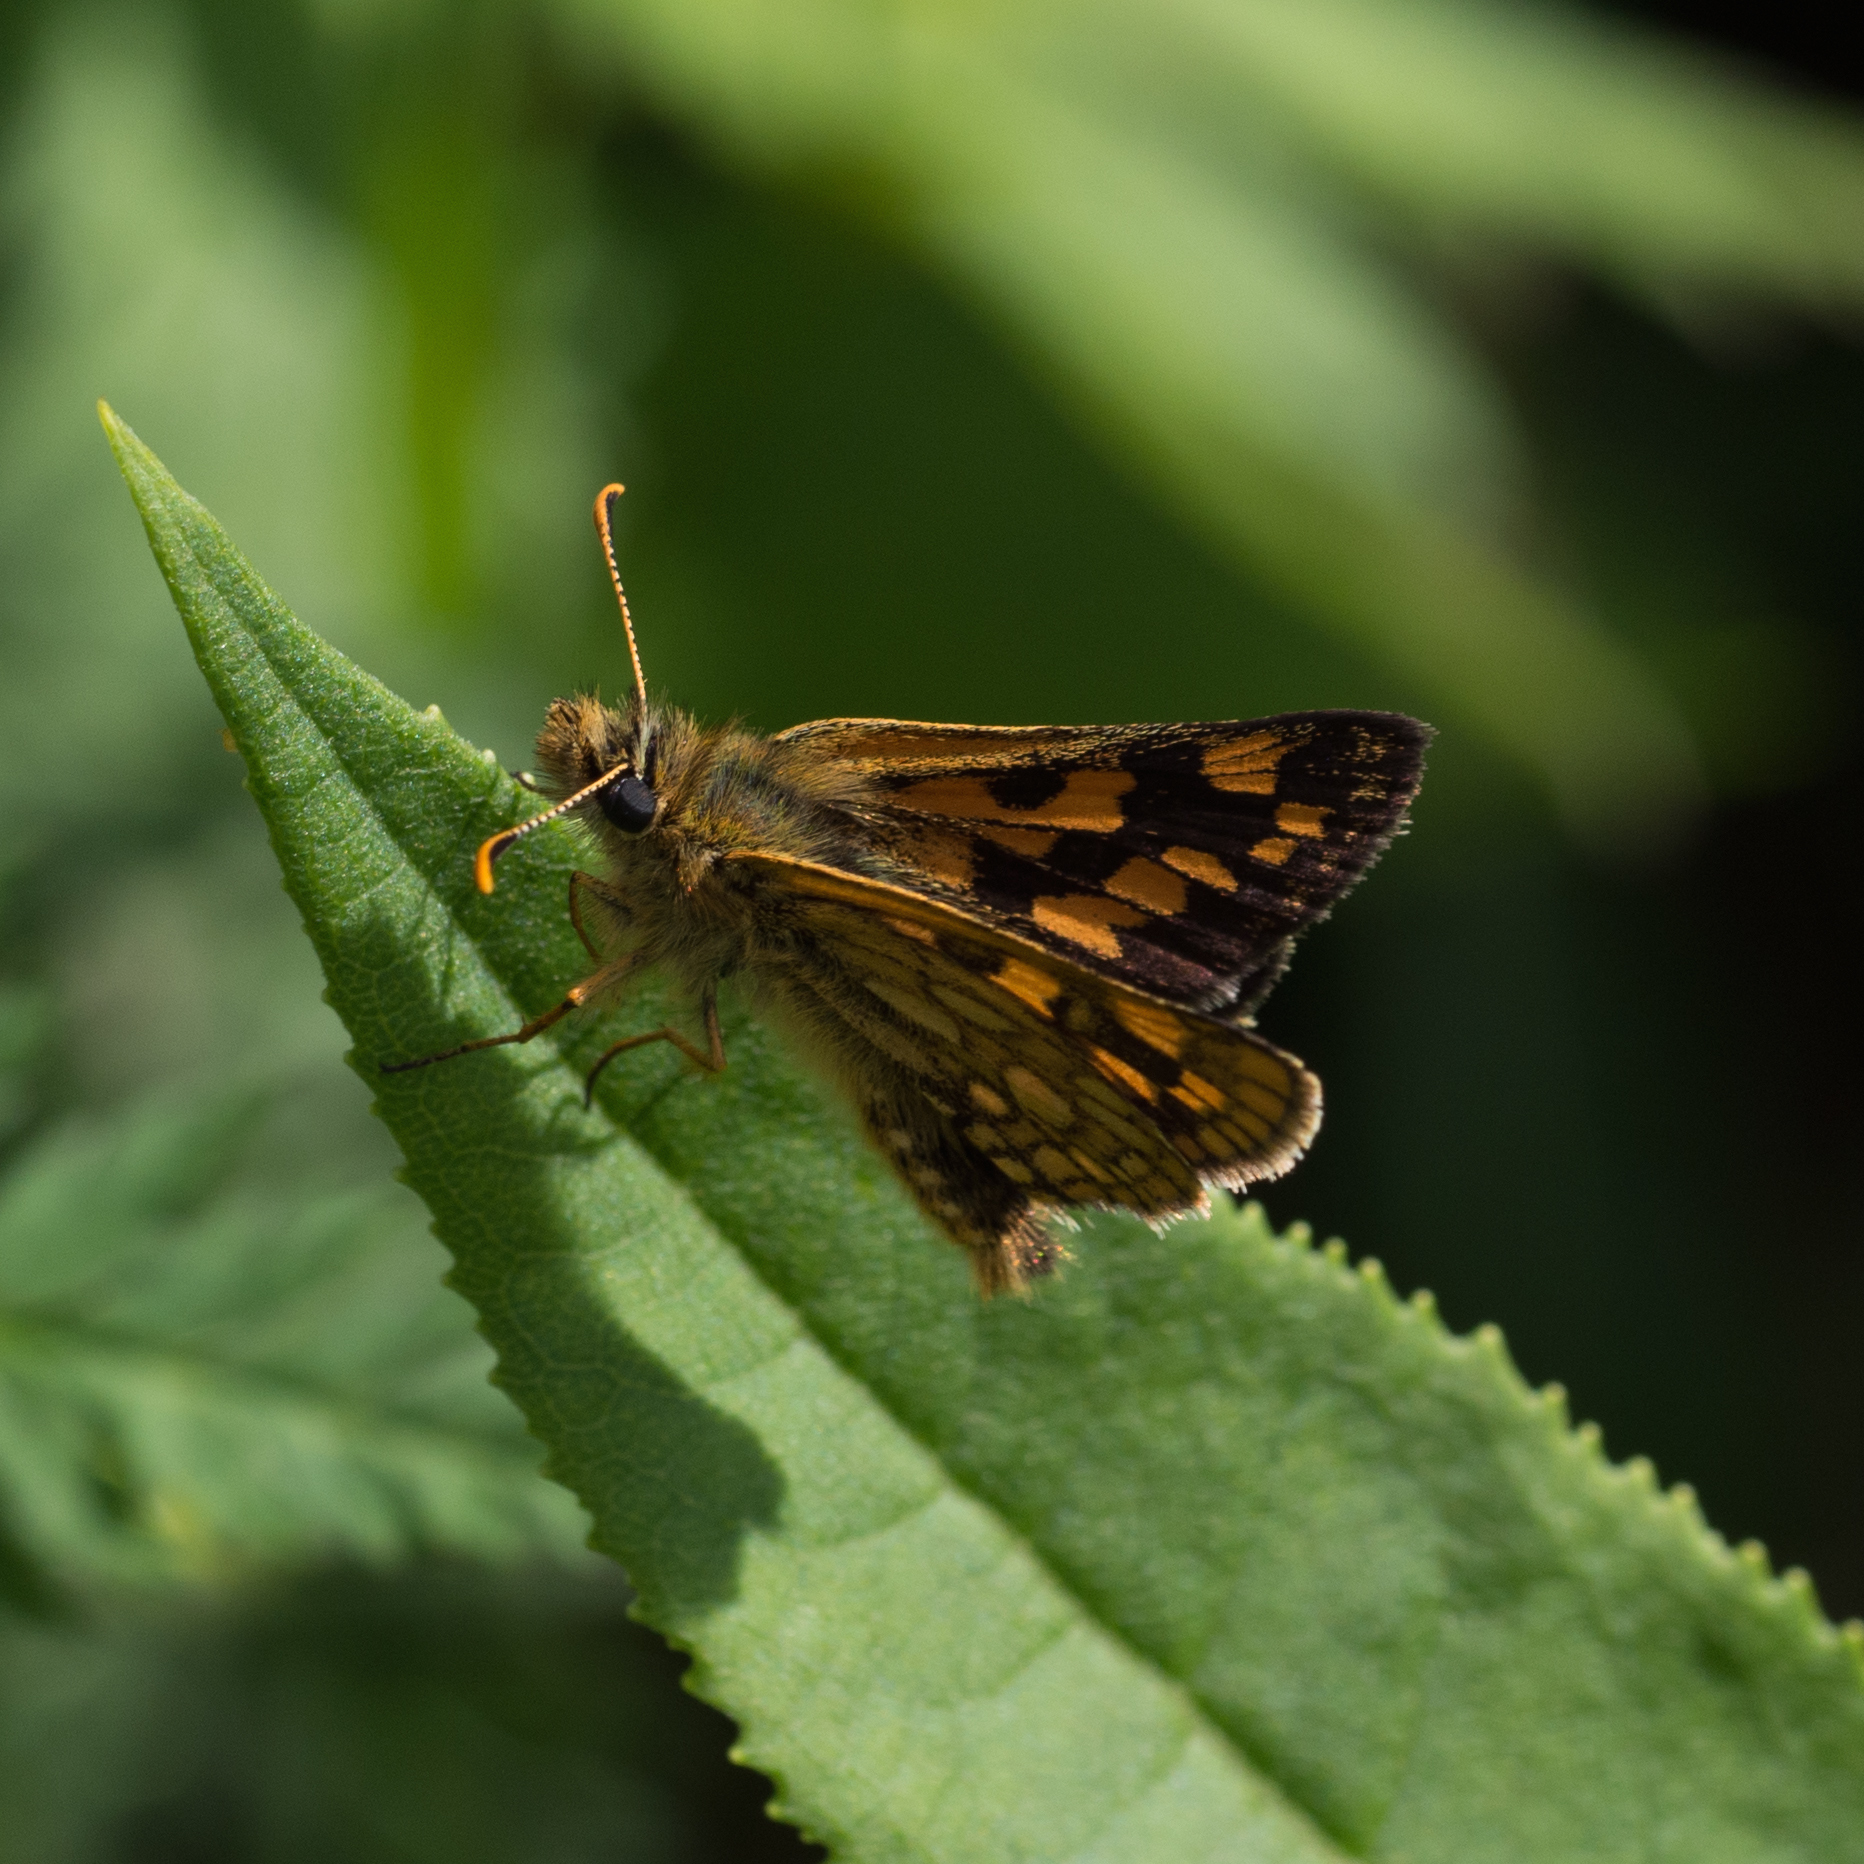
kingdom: Animalia
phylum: Arthropoda
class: Insecta
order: Lepidoptera
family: Hesperiidae
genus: Carterocephalus
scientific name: Carterocephalus palaemon
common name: Chequered skipper
